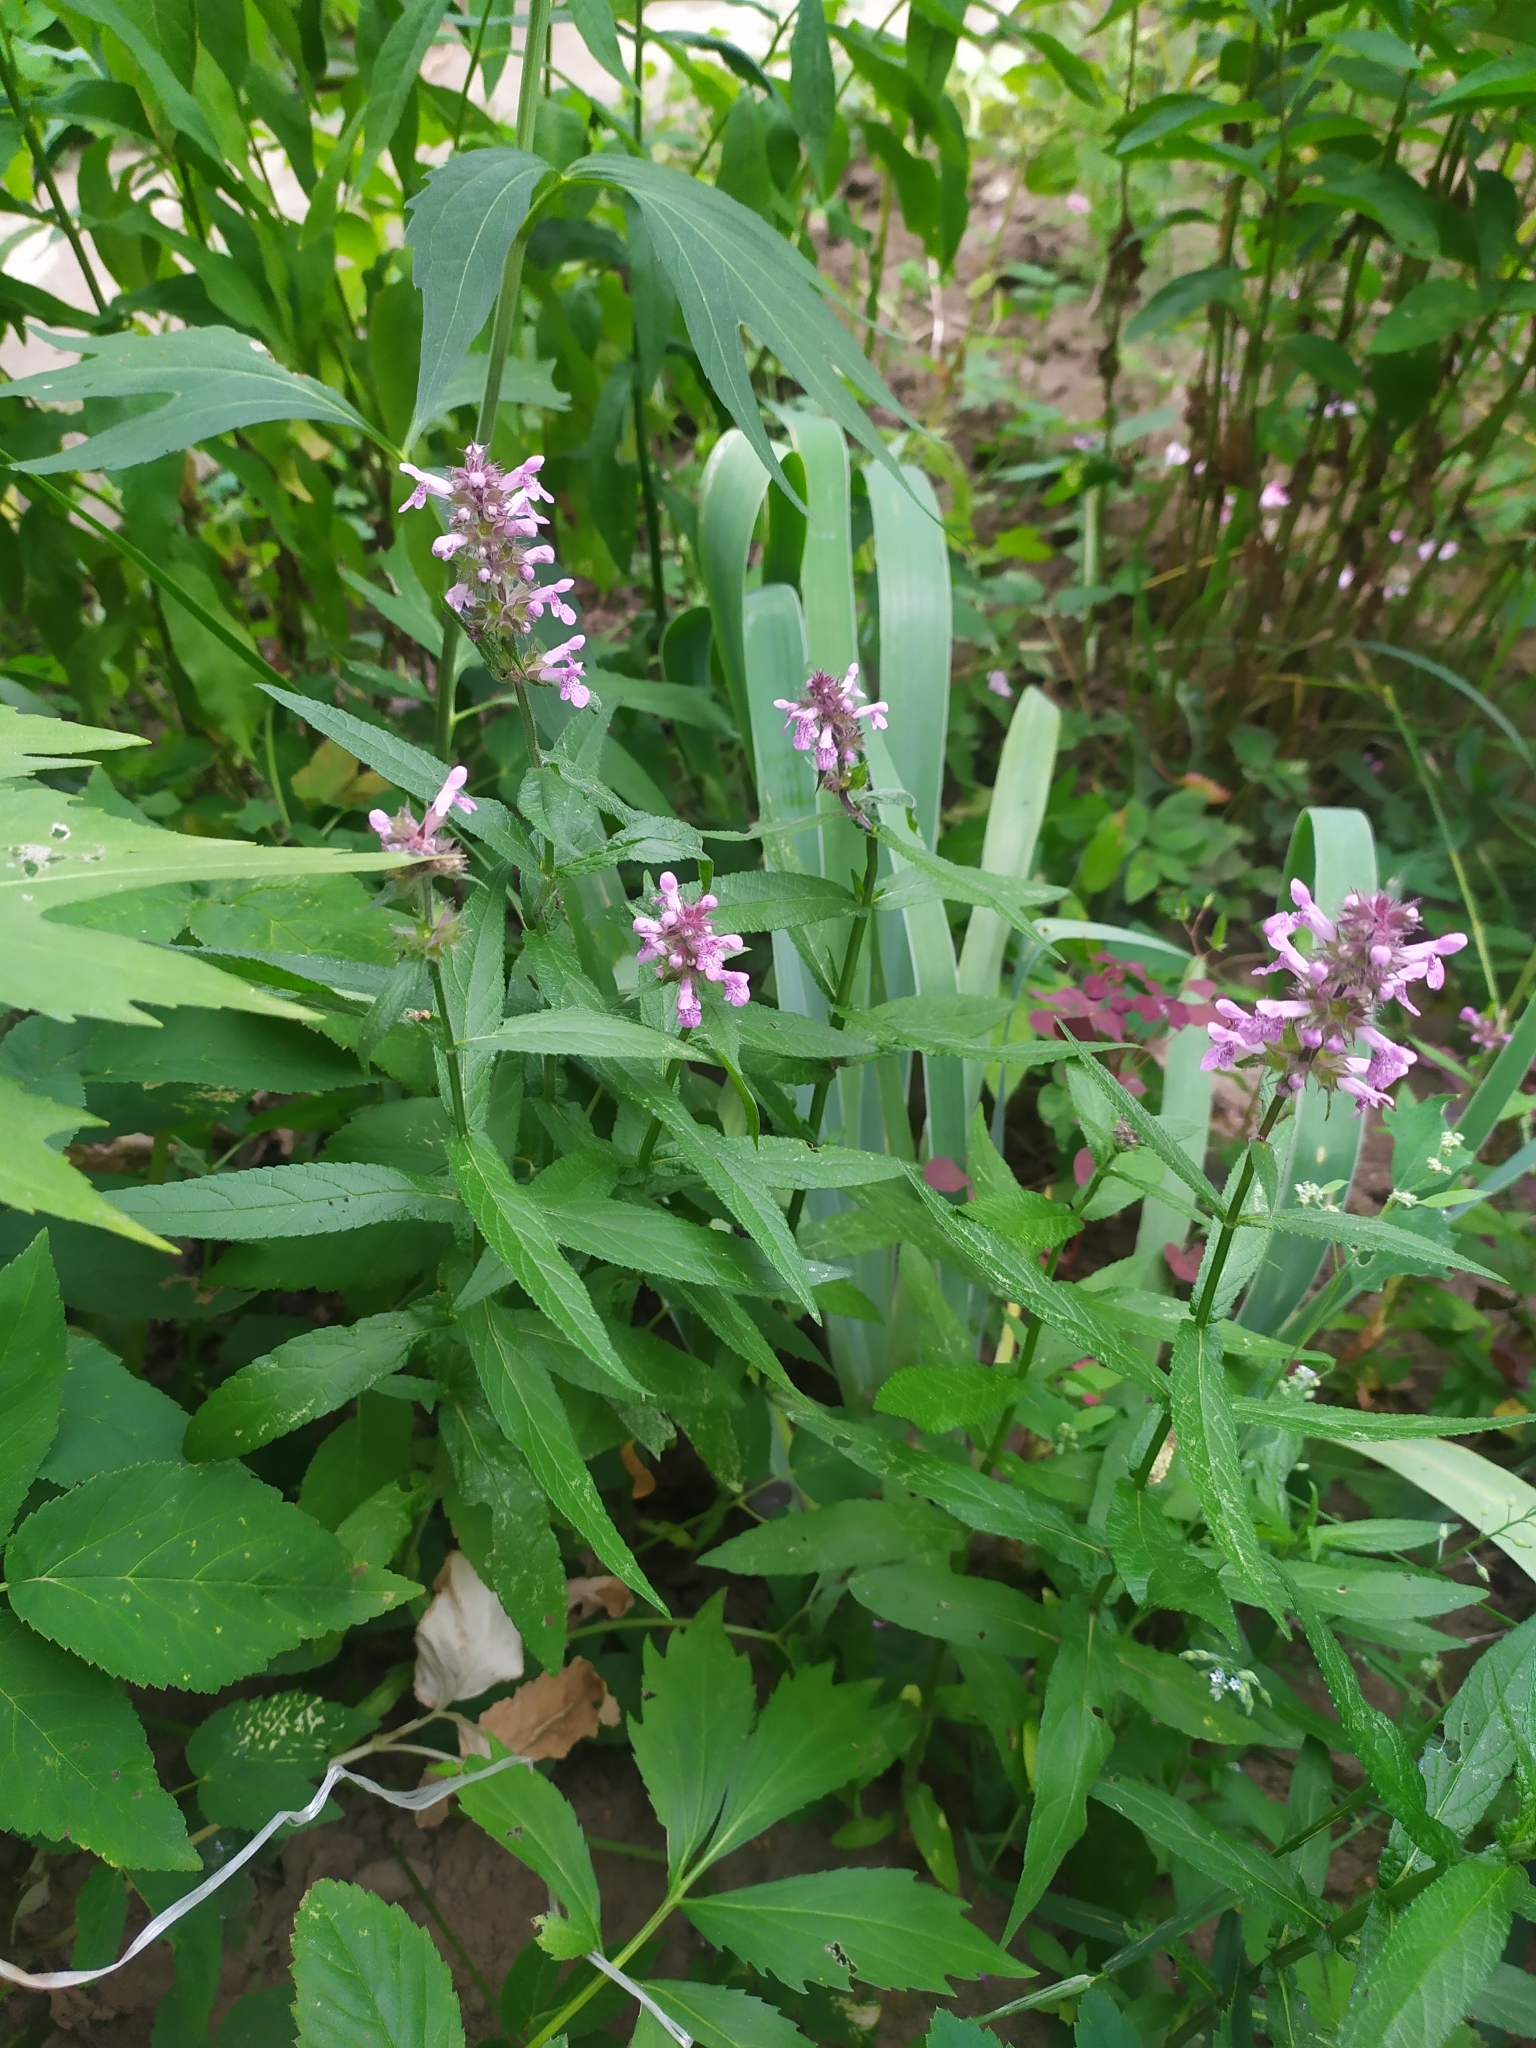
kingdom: Plantae
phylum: Tracheophyta
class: Magnoliopsida
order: Lamiales
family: Lamiaceae
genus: Stachys
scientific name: Stachys palustris
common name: Marsh woundwort
